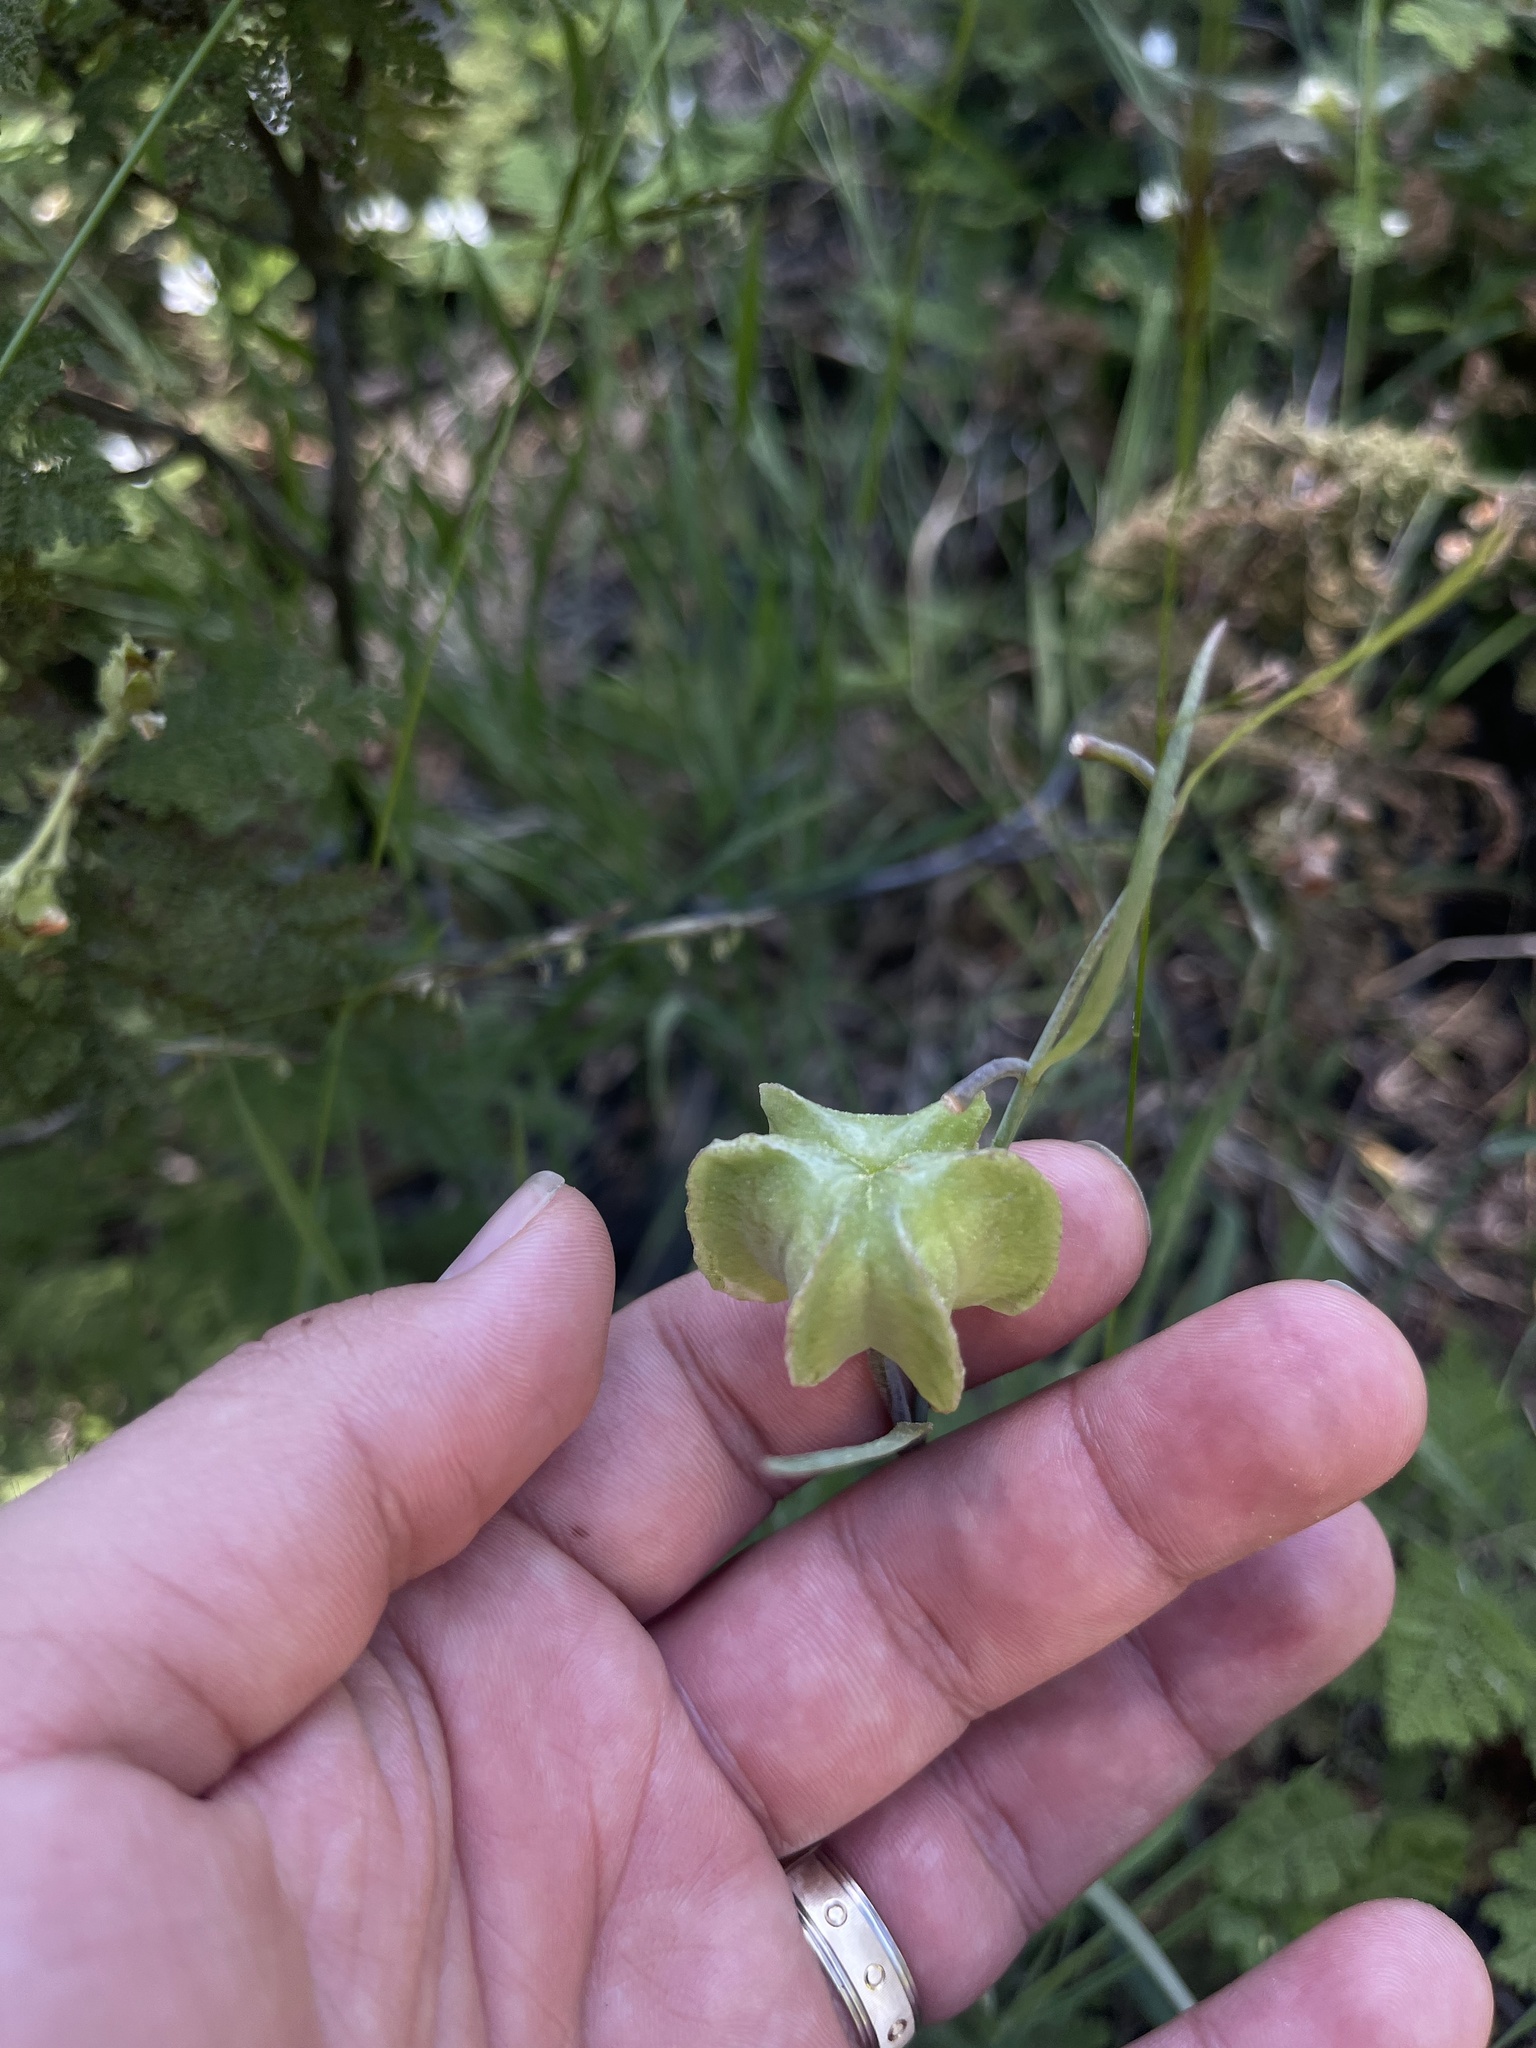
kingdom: Plantae
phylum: Tracheophyta
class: Liliopsida
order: Liliales
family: Liliaceae
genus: Fritillaria
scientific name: Fritillaria micrantha
